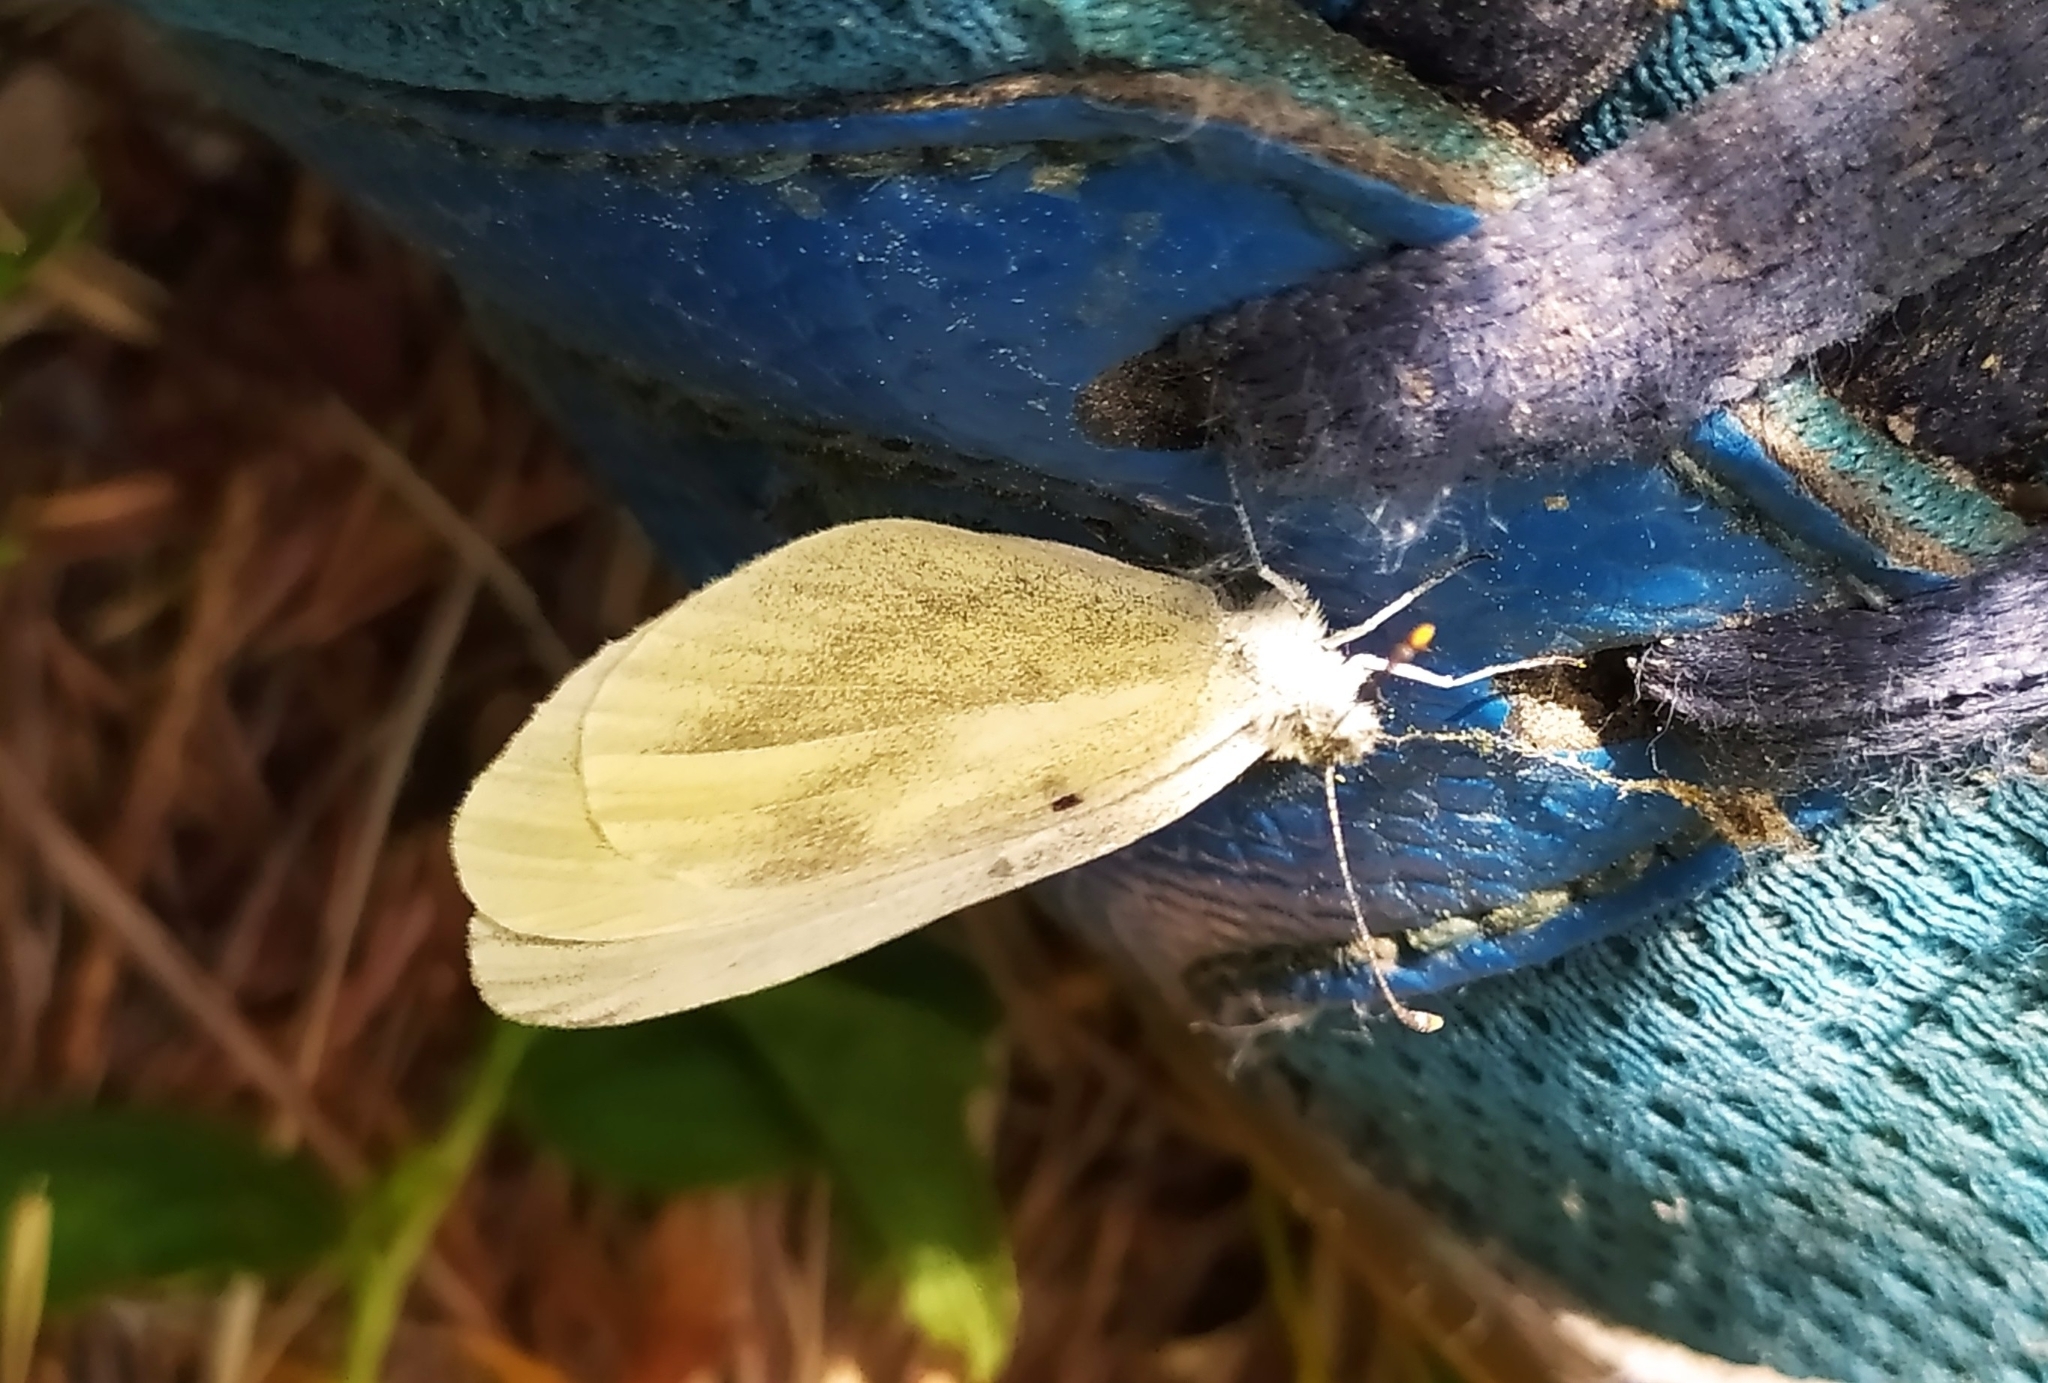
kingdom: Animalia
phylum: Arthropoda
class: Insecta
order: Lepidoptera
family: Pieridae
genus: Leptidea
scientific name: Leptidea
